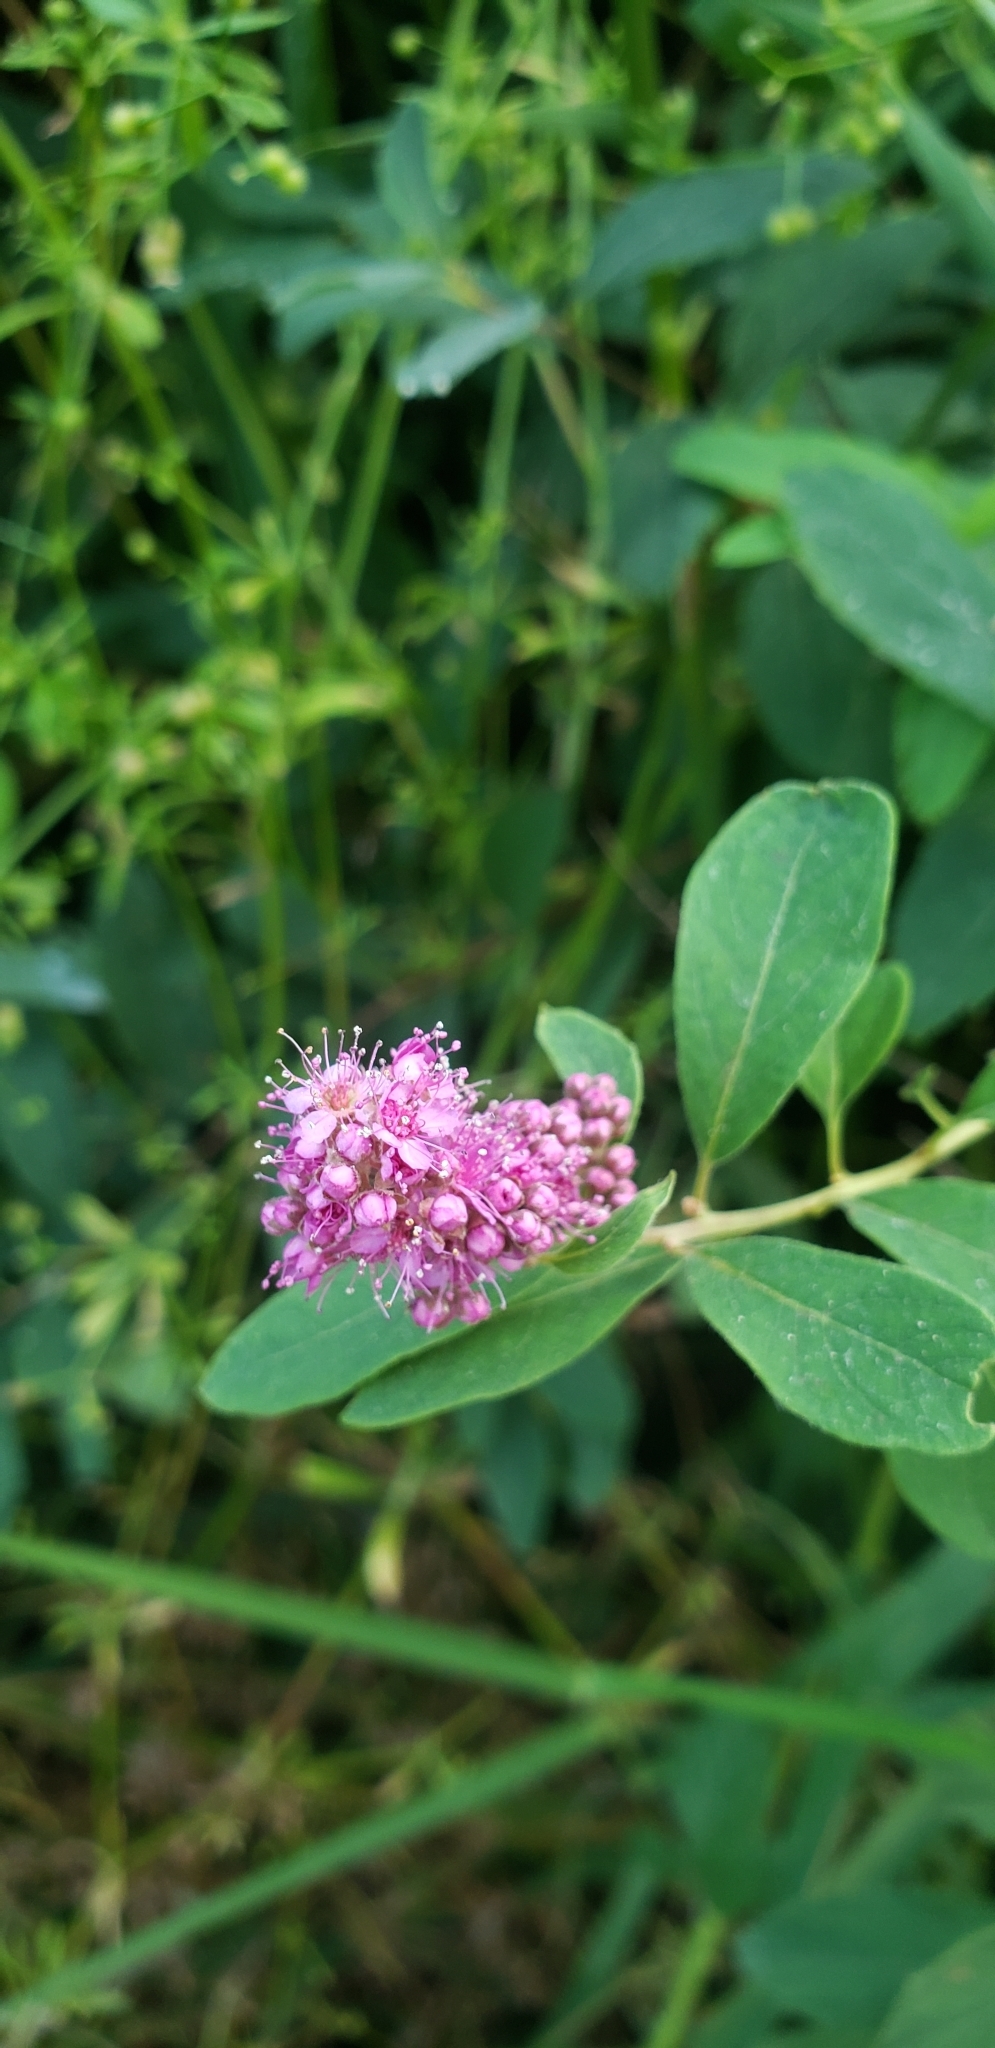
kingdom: Plantae
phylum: Tracheophyta
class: Magnoliopsida
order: Rosales
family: Rosaceae
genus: Spiraea
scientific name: Spiraea douglasii
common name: Steeplebush
